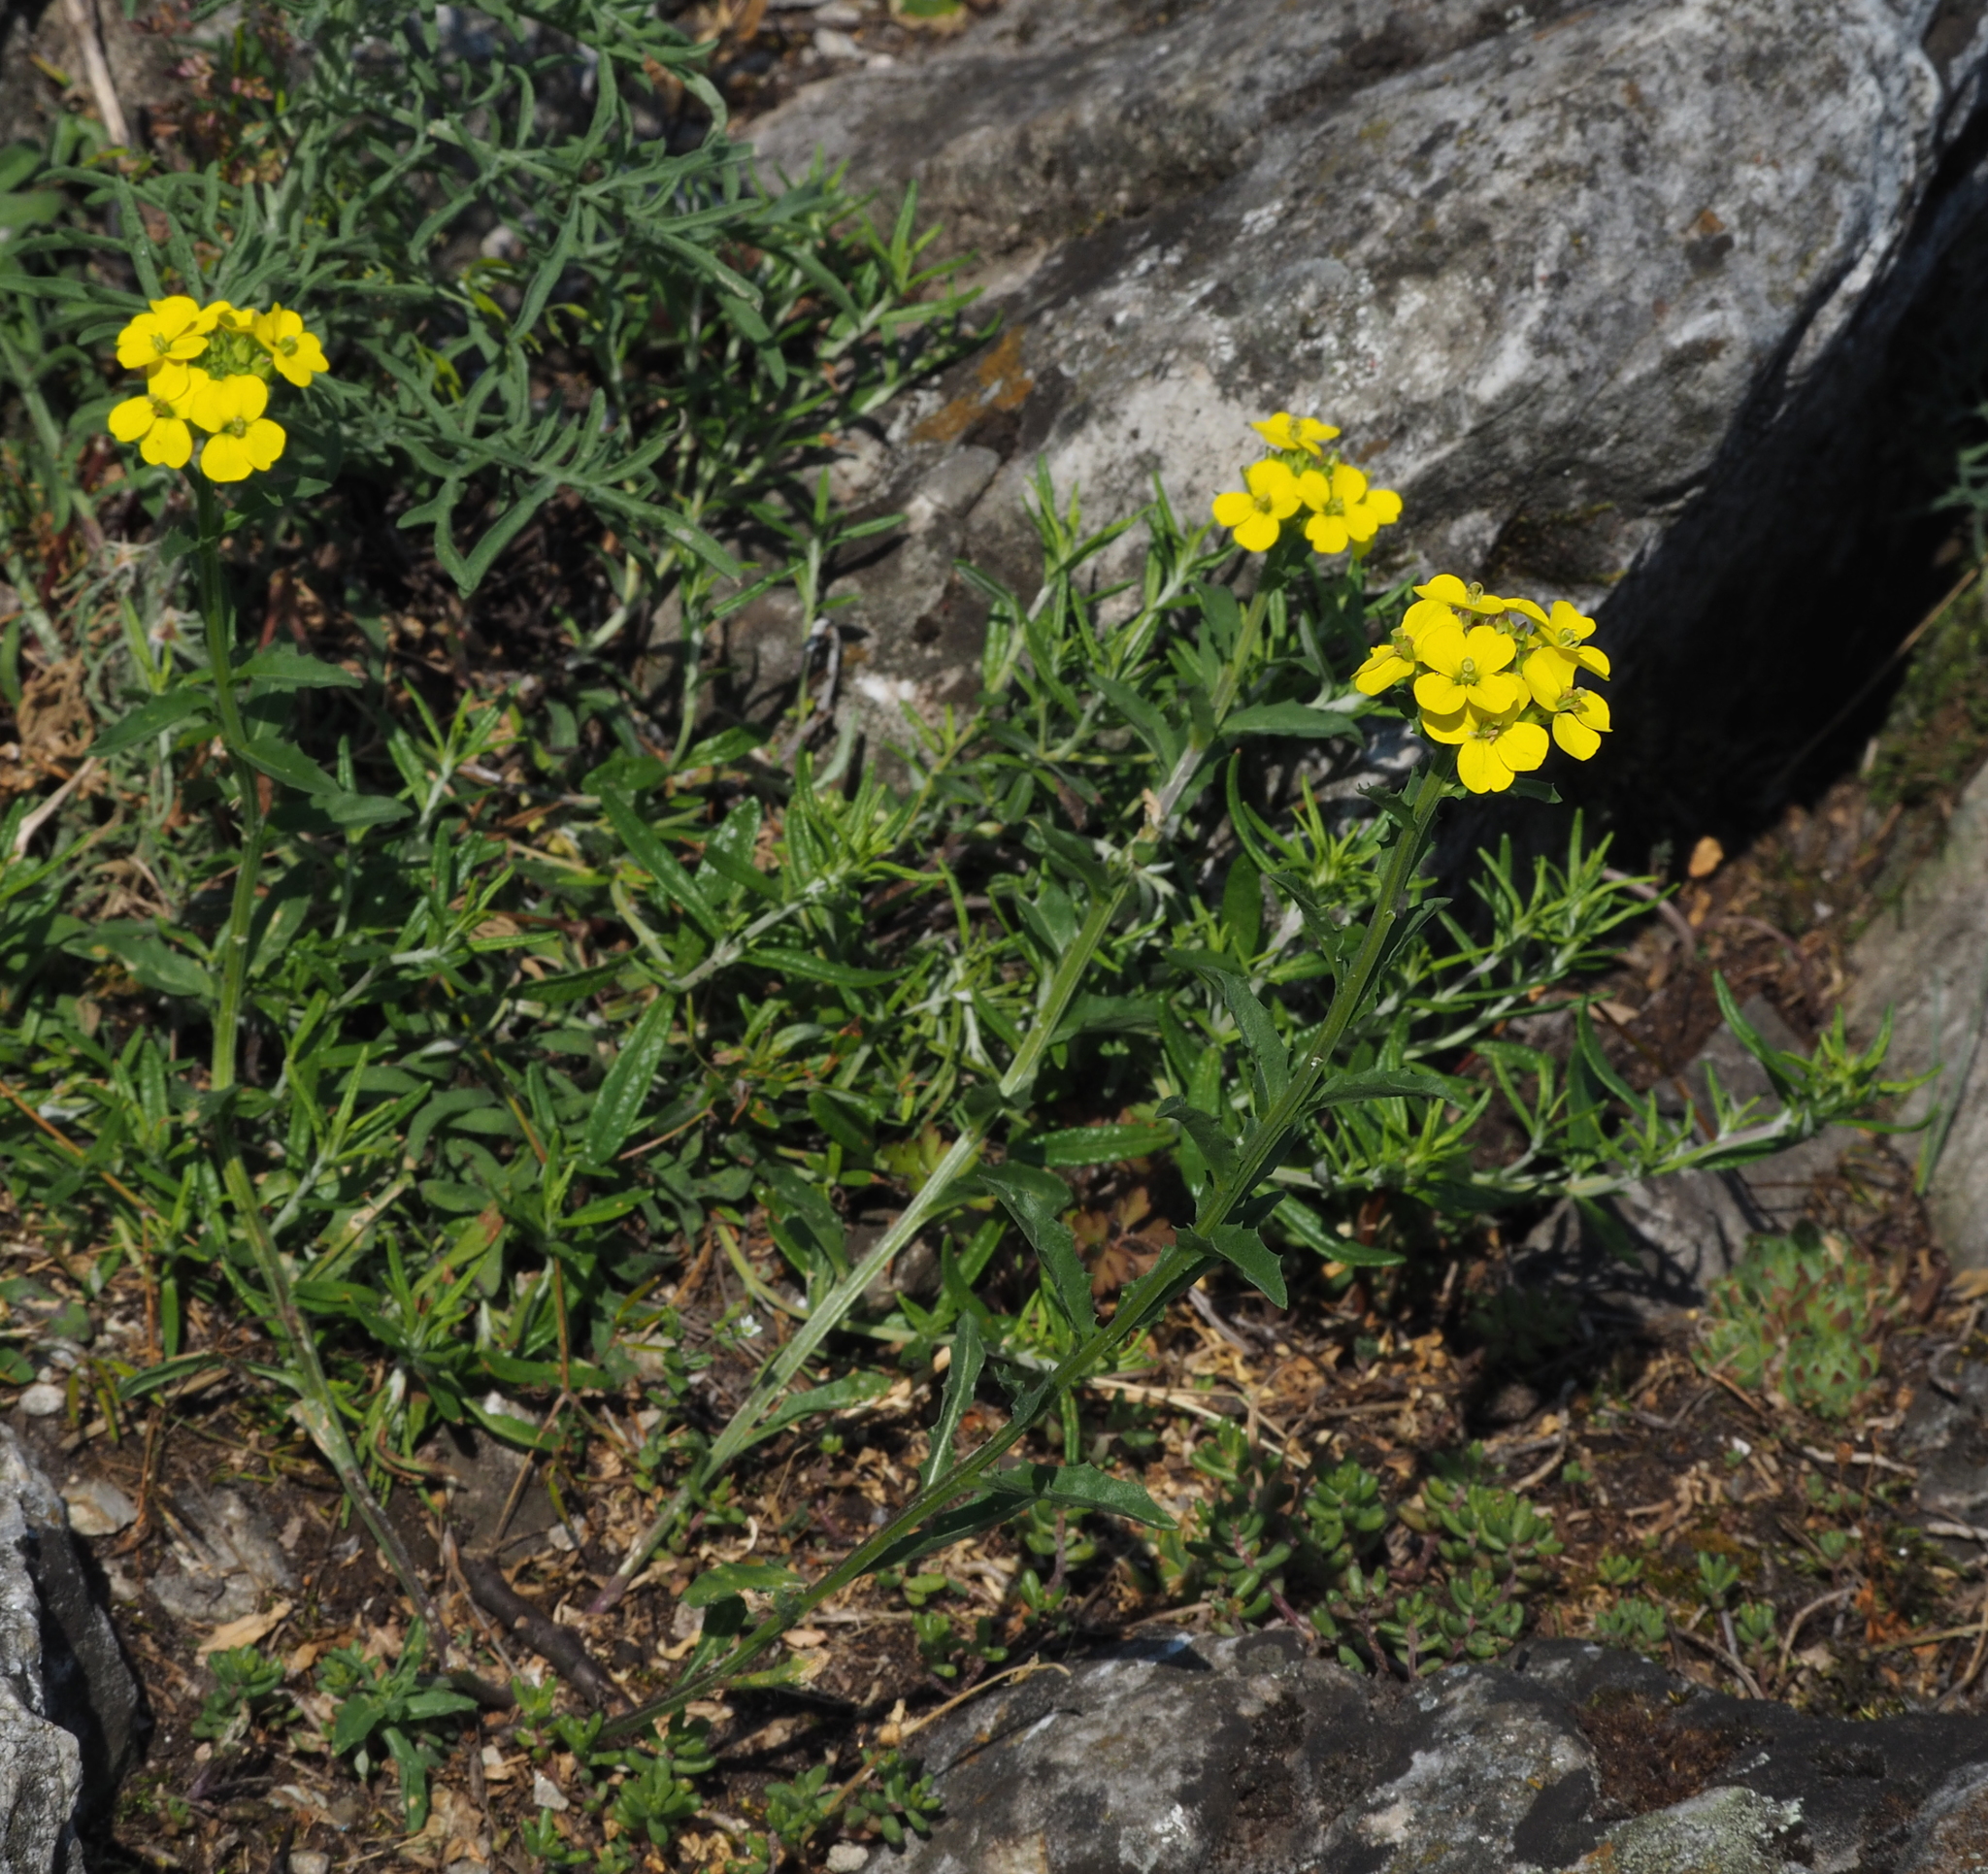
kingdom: Plantae
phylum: Tracheophyta
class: Magnoliopsida
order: Brassicales
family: Brassicaceae
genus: Erysimum
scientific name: Erysimum odoratum
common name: Smelly wallflower
